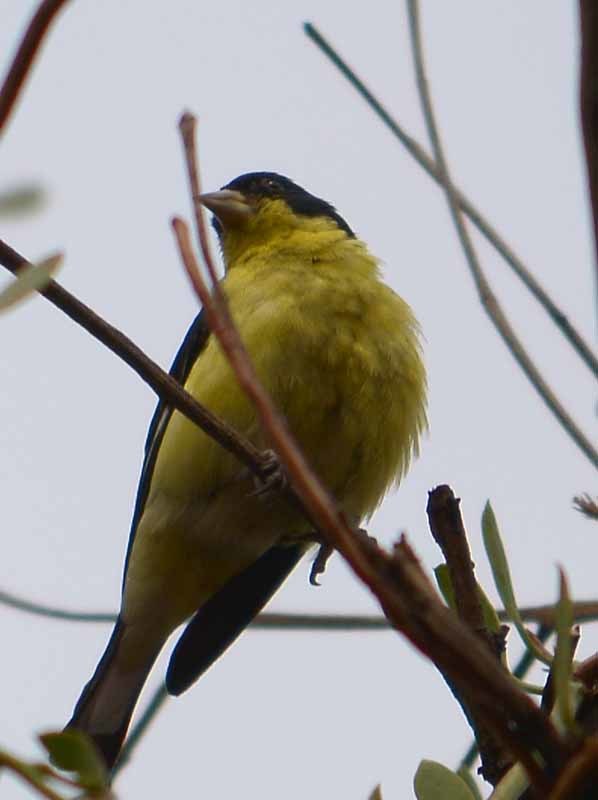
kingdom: Animalia
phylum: Chordata
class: Aves
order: Passeriformes
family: Fringillidae
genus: Spinus
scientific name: Spinus psaltria
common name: Lesser goldfinch
